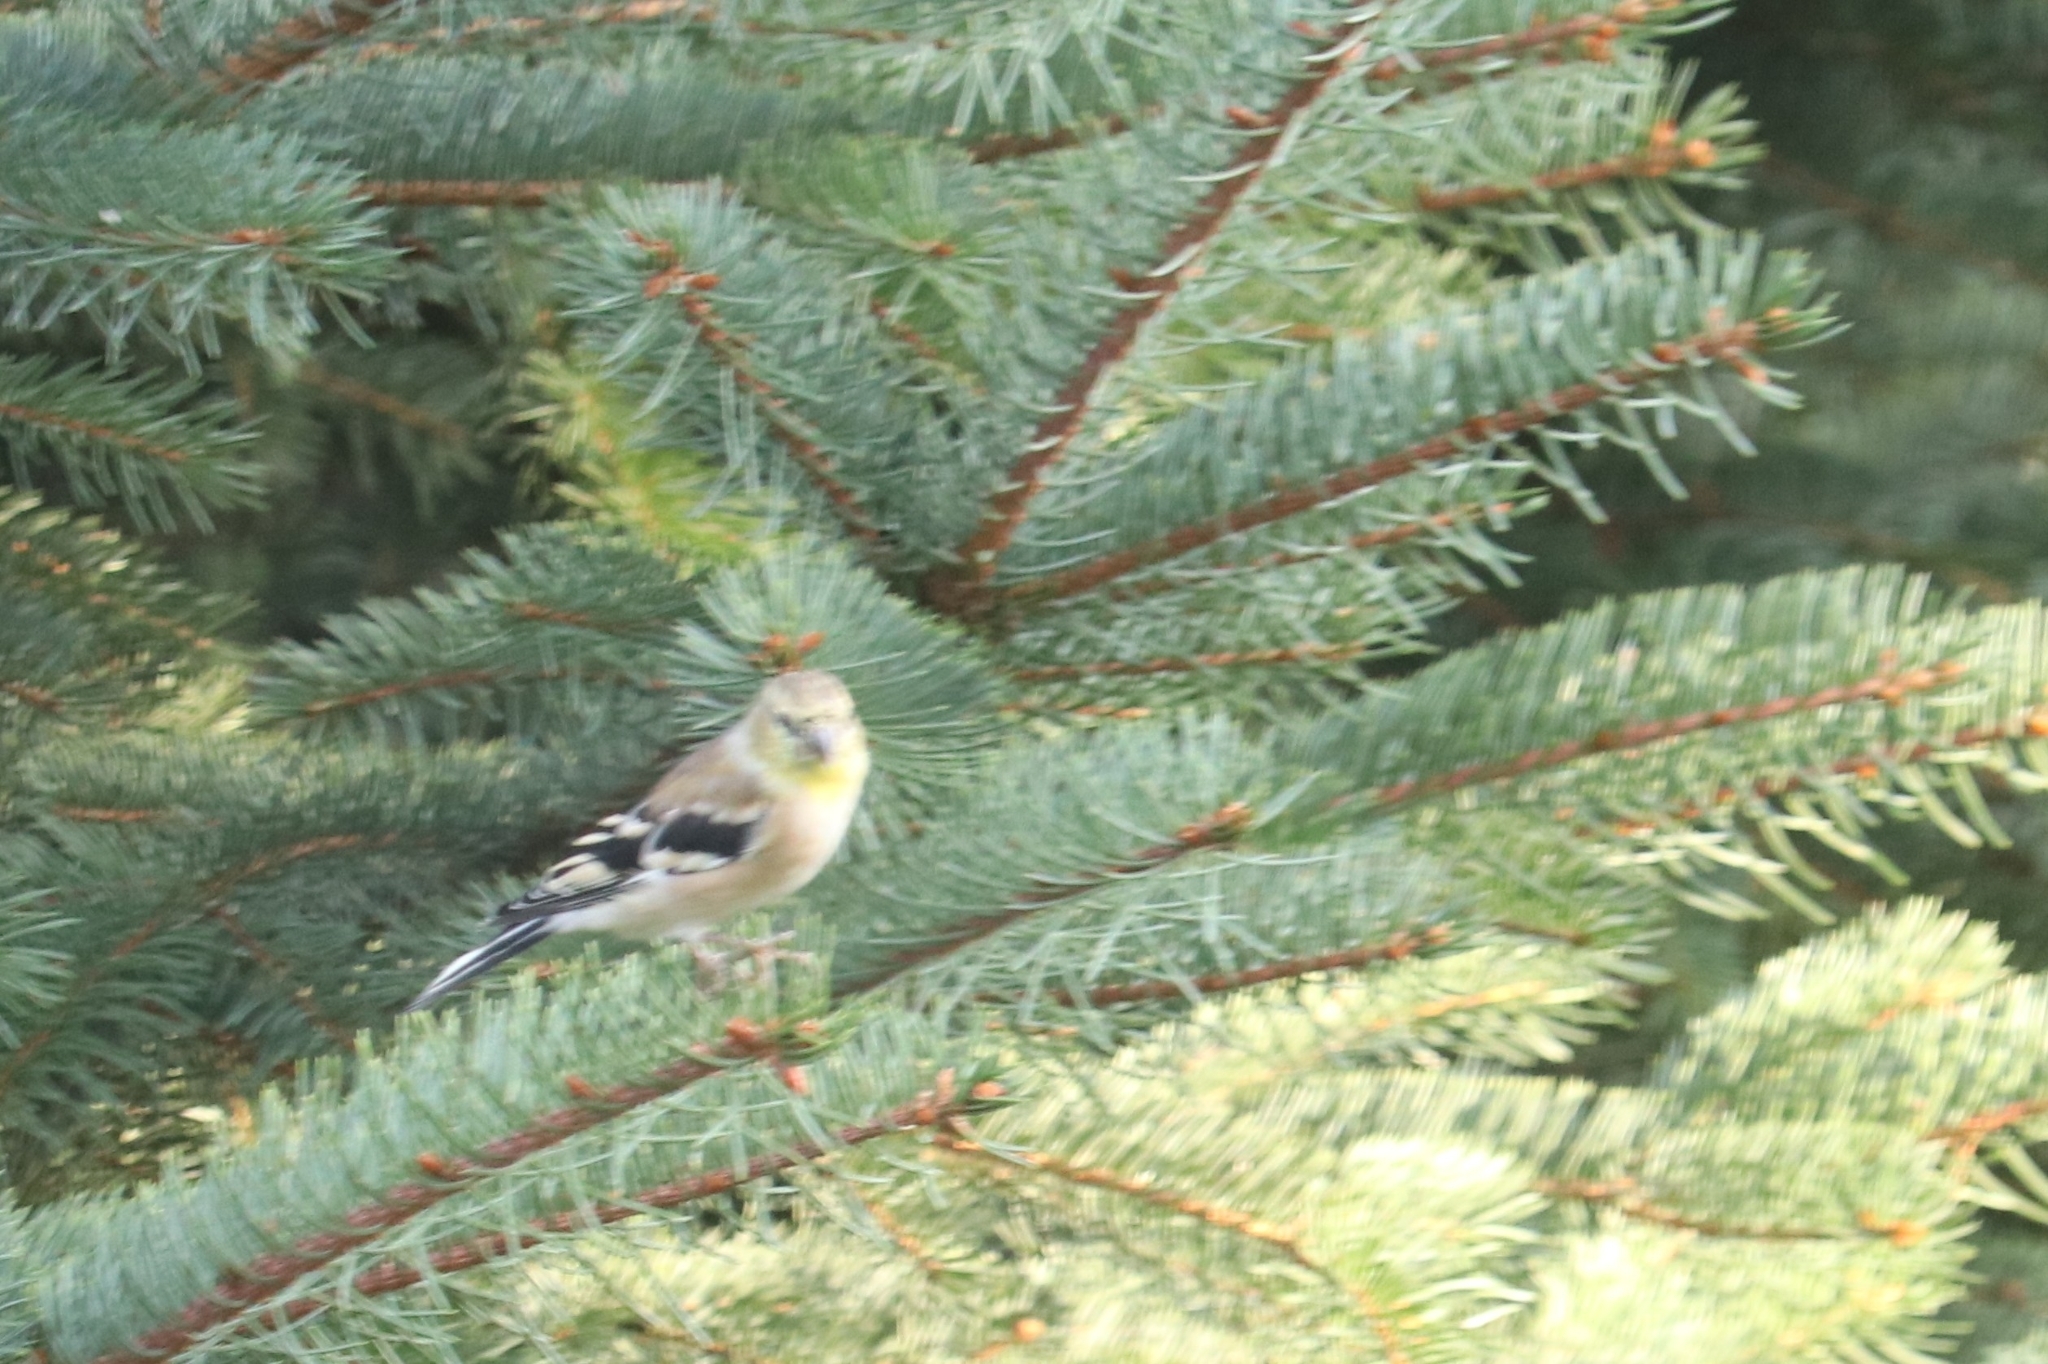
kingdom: Animalia
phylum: Chordata
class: Aves
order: Passeriformes
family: Fringillidae
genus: Spinus
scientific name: Spinus tristis
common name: American goldfinch
